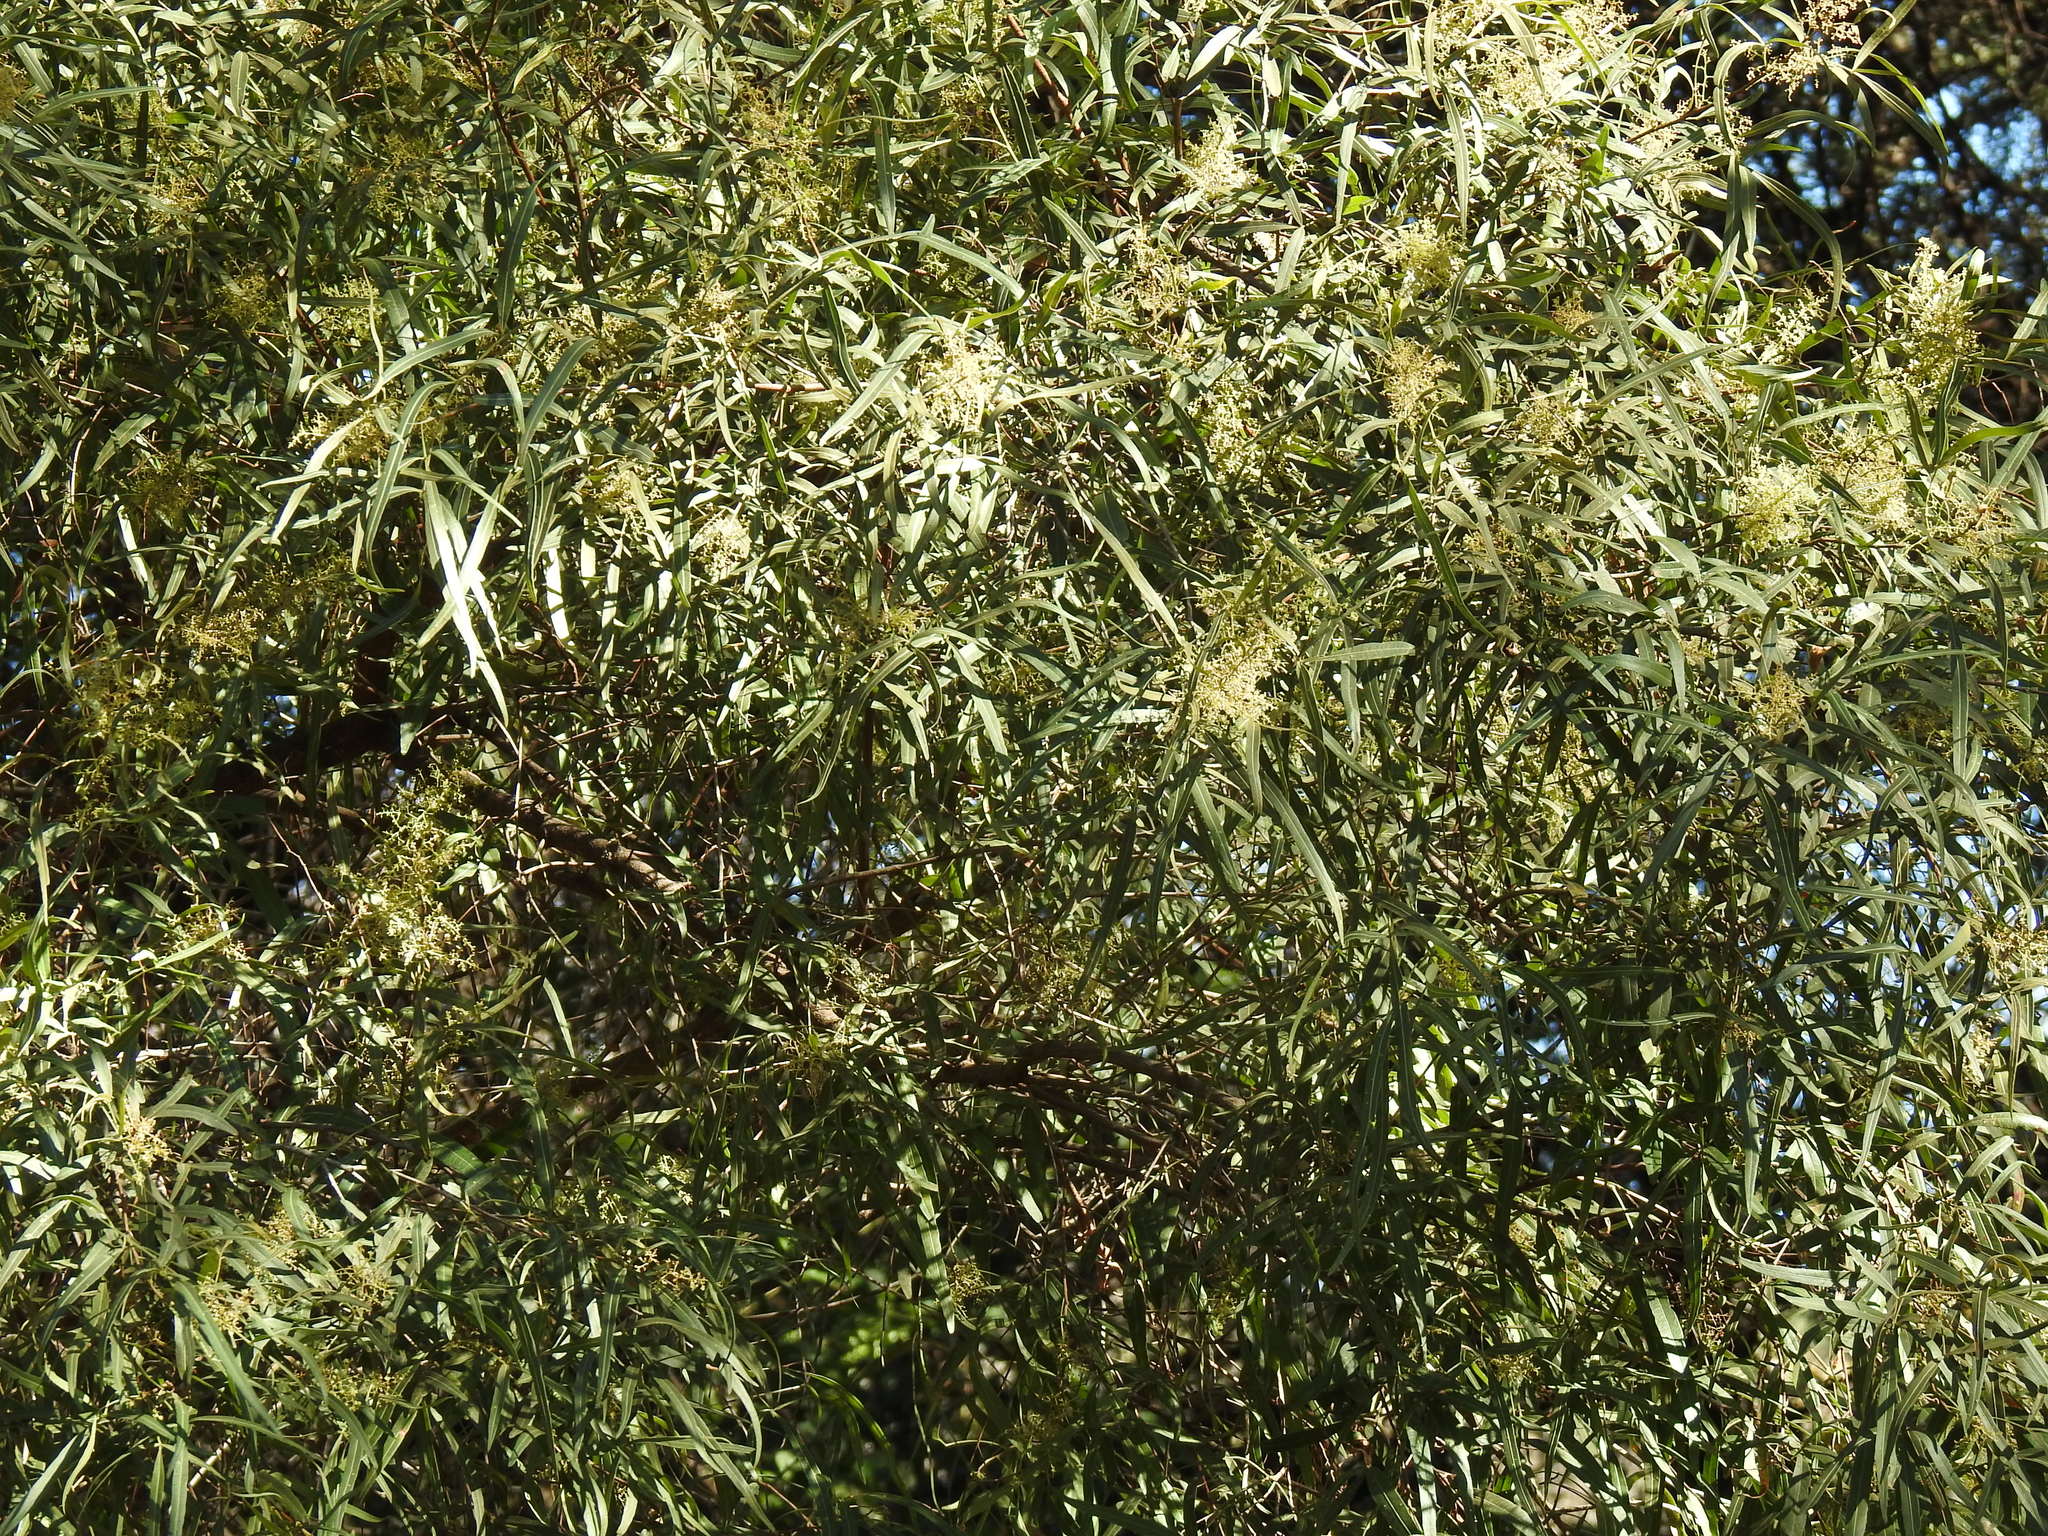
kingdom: Plantae
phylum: Tracheophyta
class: Magnoliopsida
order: Sapindales
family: Anacardiaceae
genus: Searsia
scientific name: Searsia lancea
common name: Cashew
